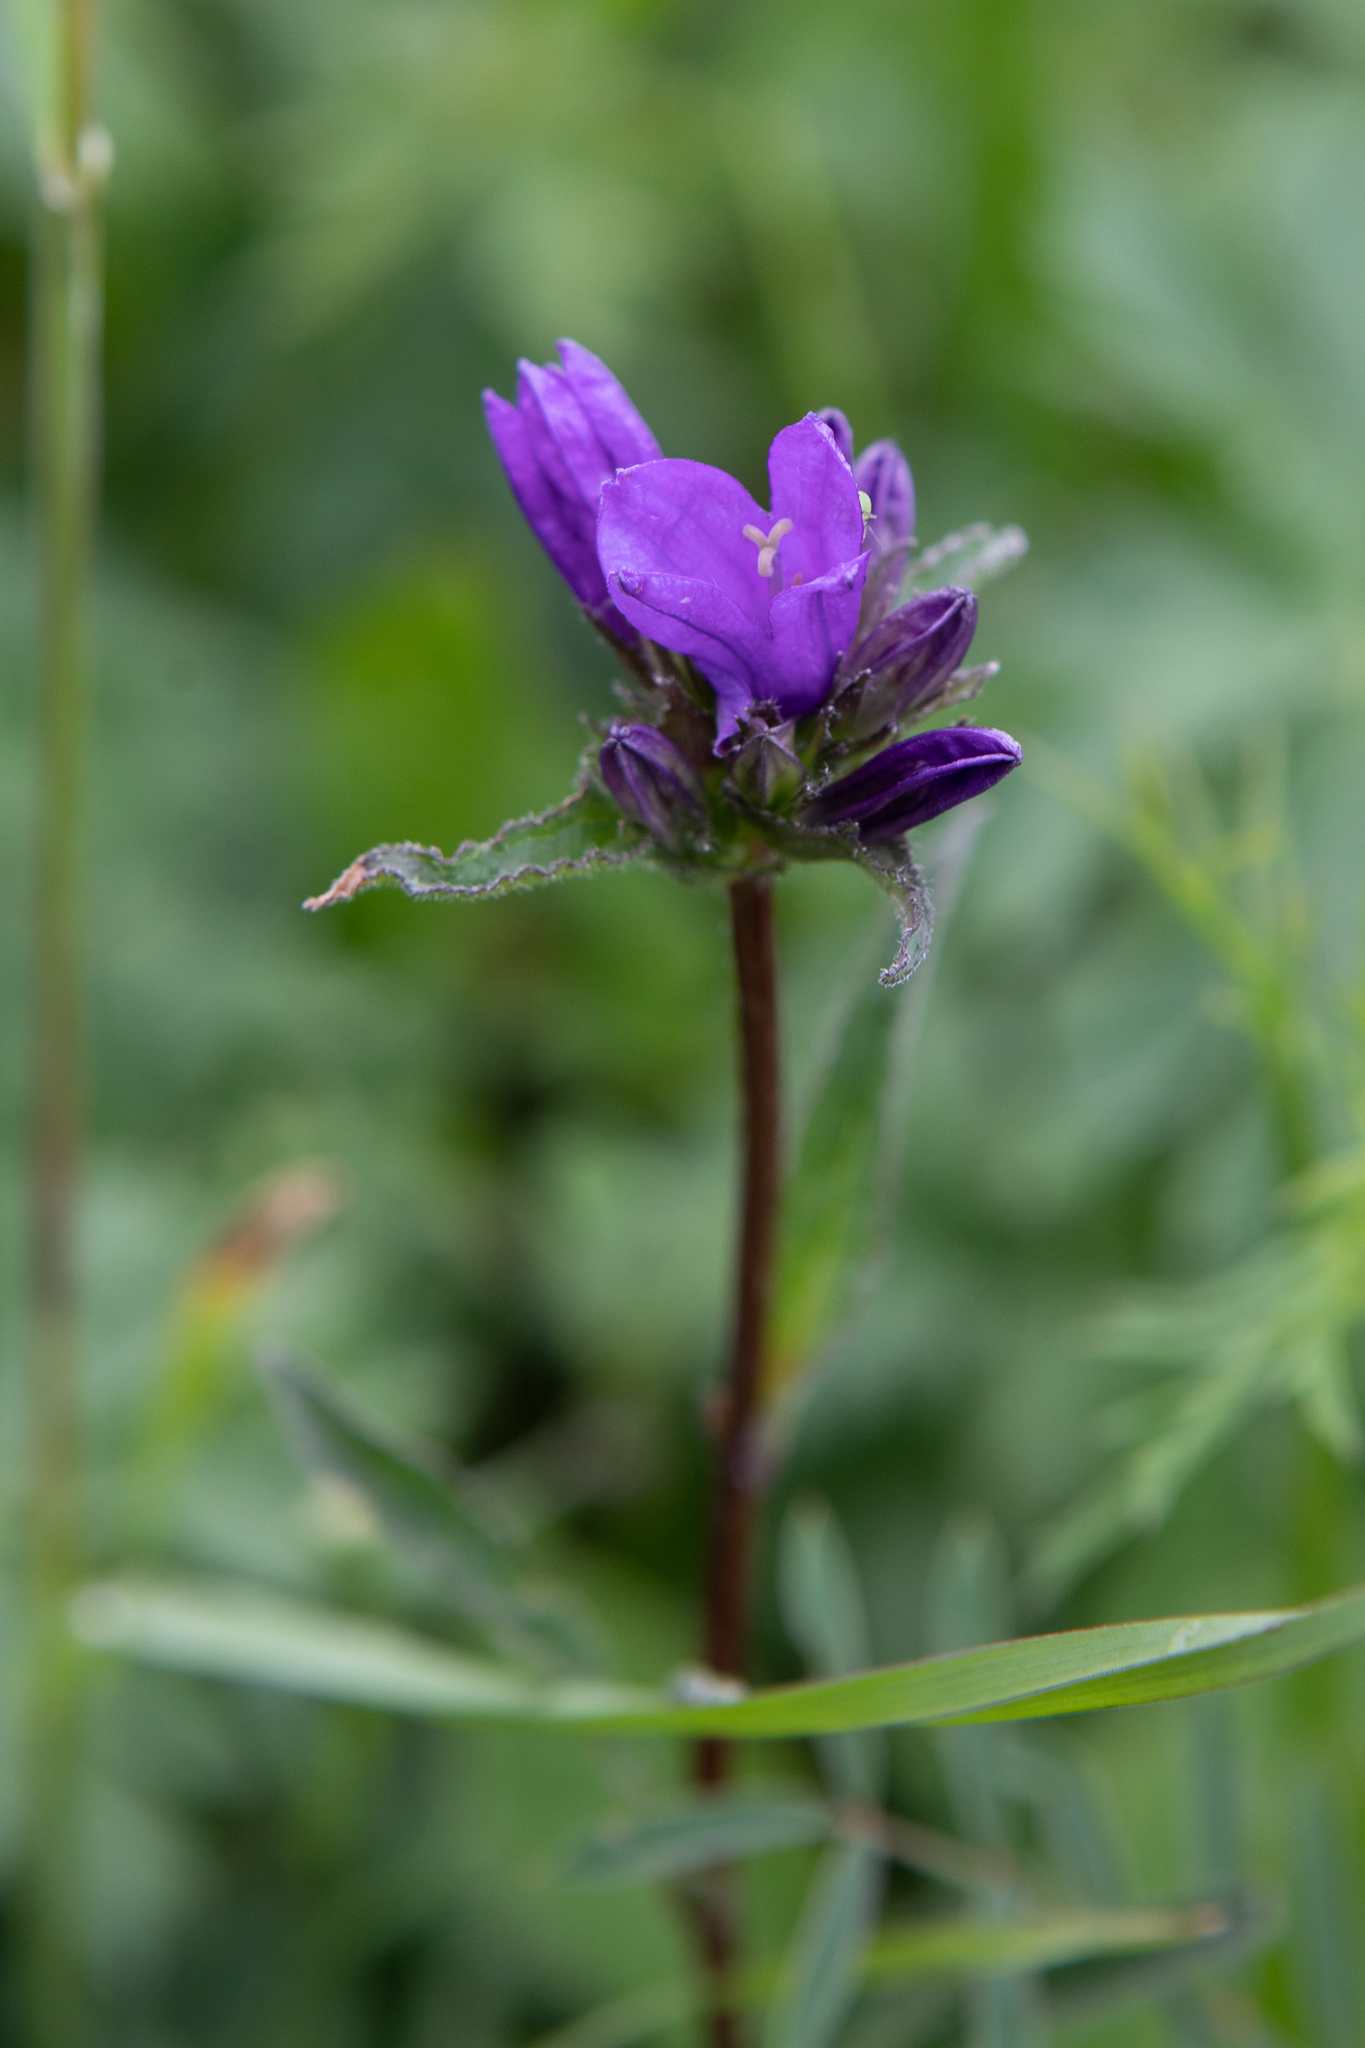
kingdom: Plantae
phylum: Tracheophyta
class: Magnoliopsida
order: Asterales
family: Campanulaceae
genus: Campanula
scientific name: Campanula glomerata
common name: Clustered bellflower
